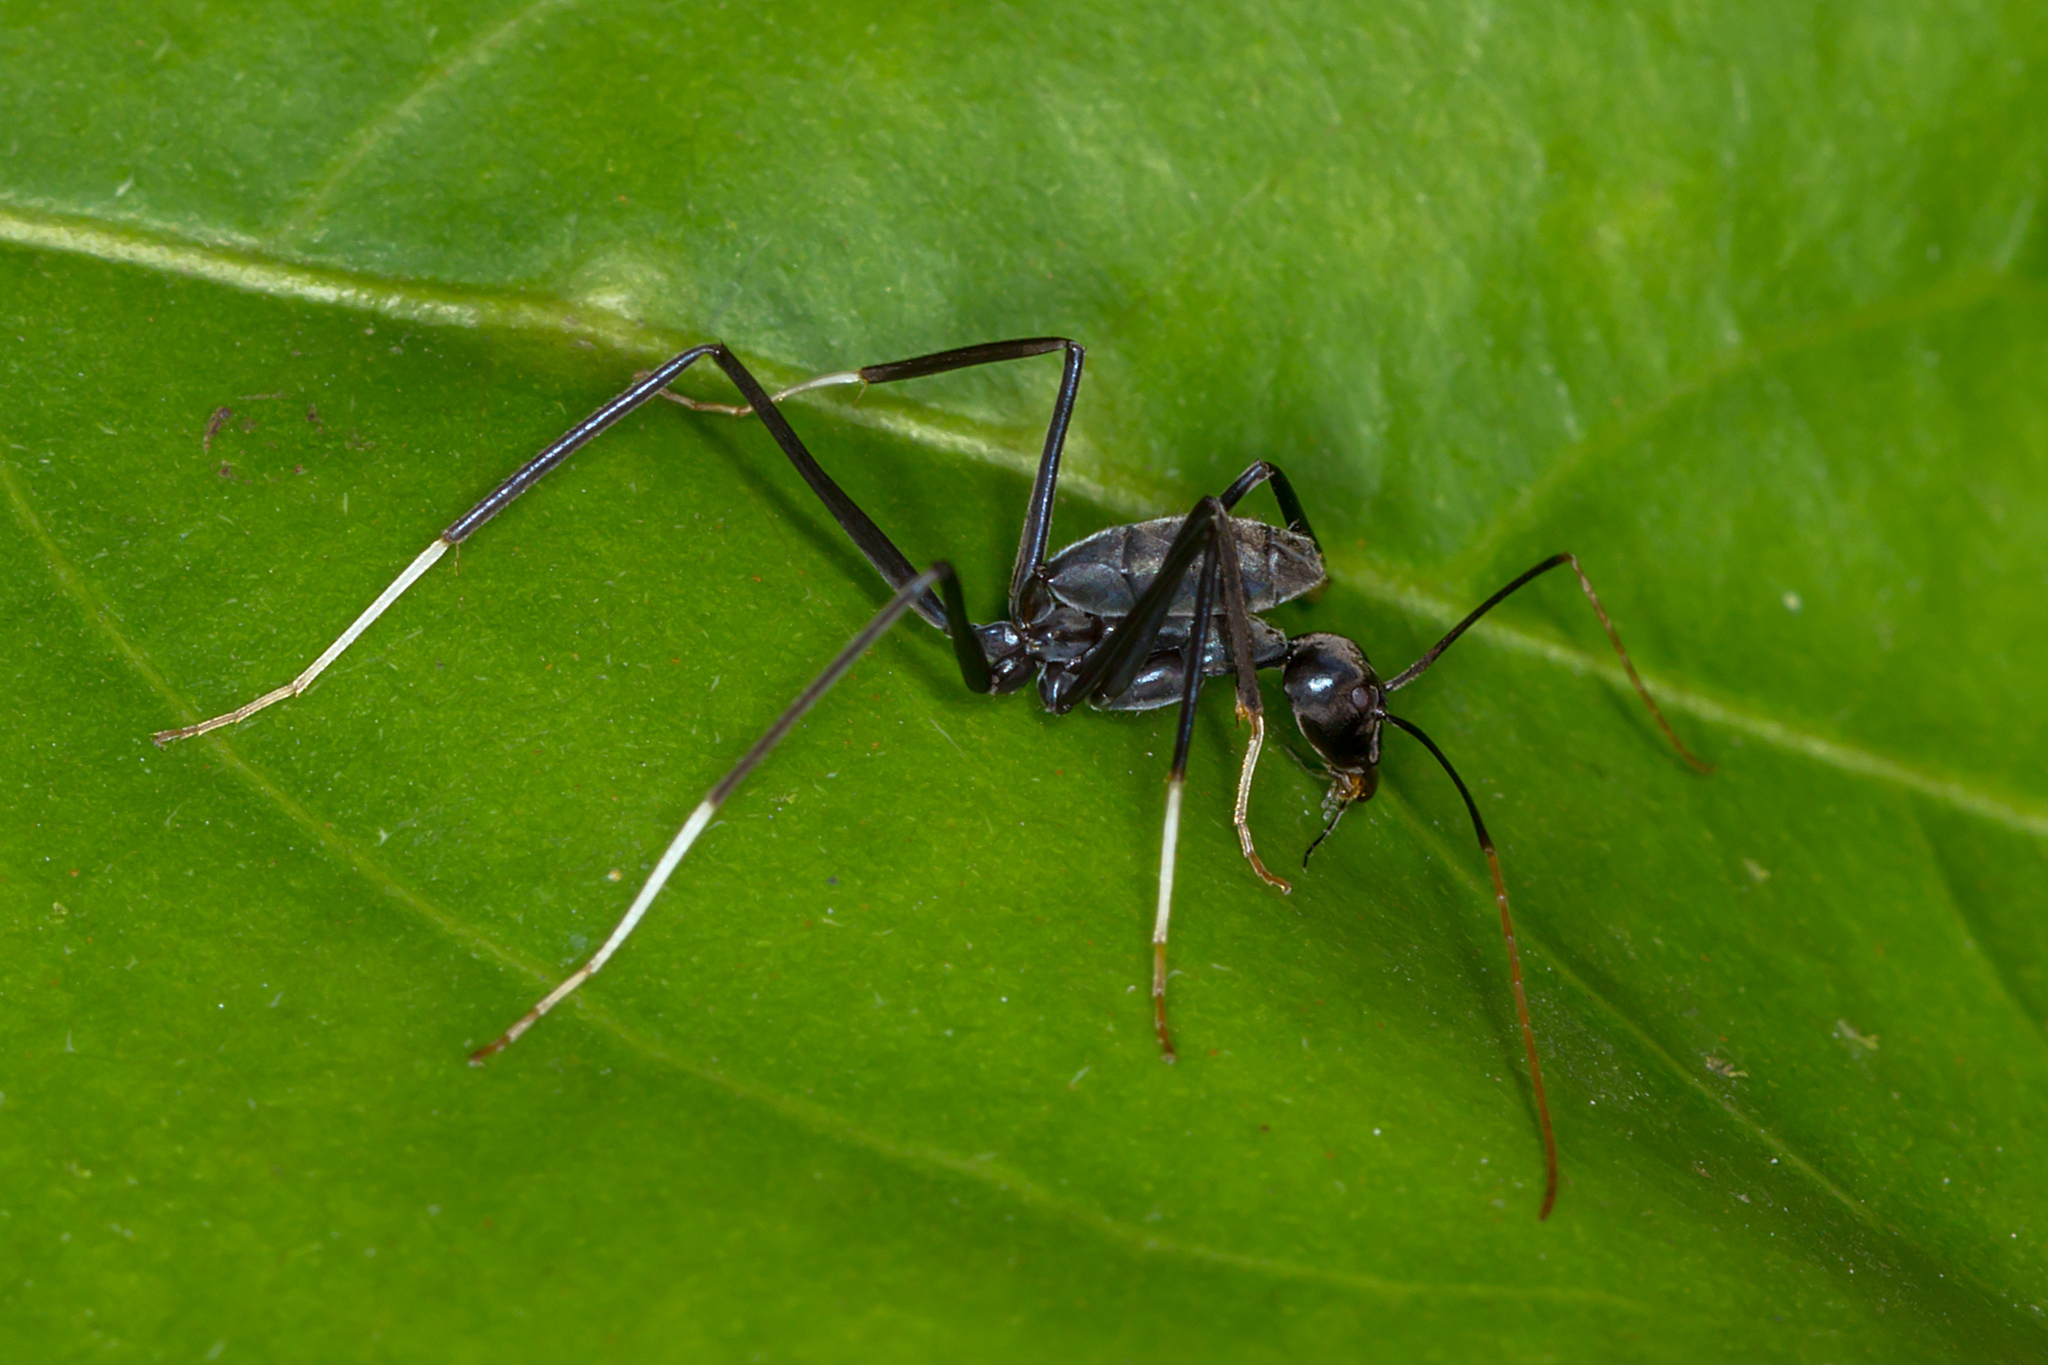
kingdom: Animalia
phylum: Arthropoda
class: Insecta
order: Hymenoptera
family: Formicidae
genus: Leptomyrmex
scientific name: Leptomyrmex unicolor
